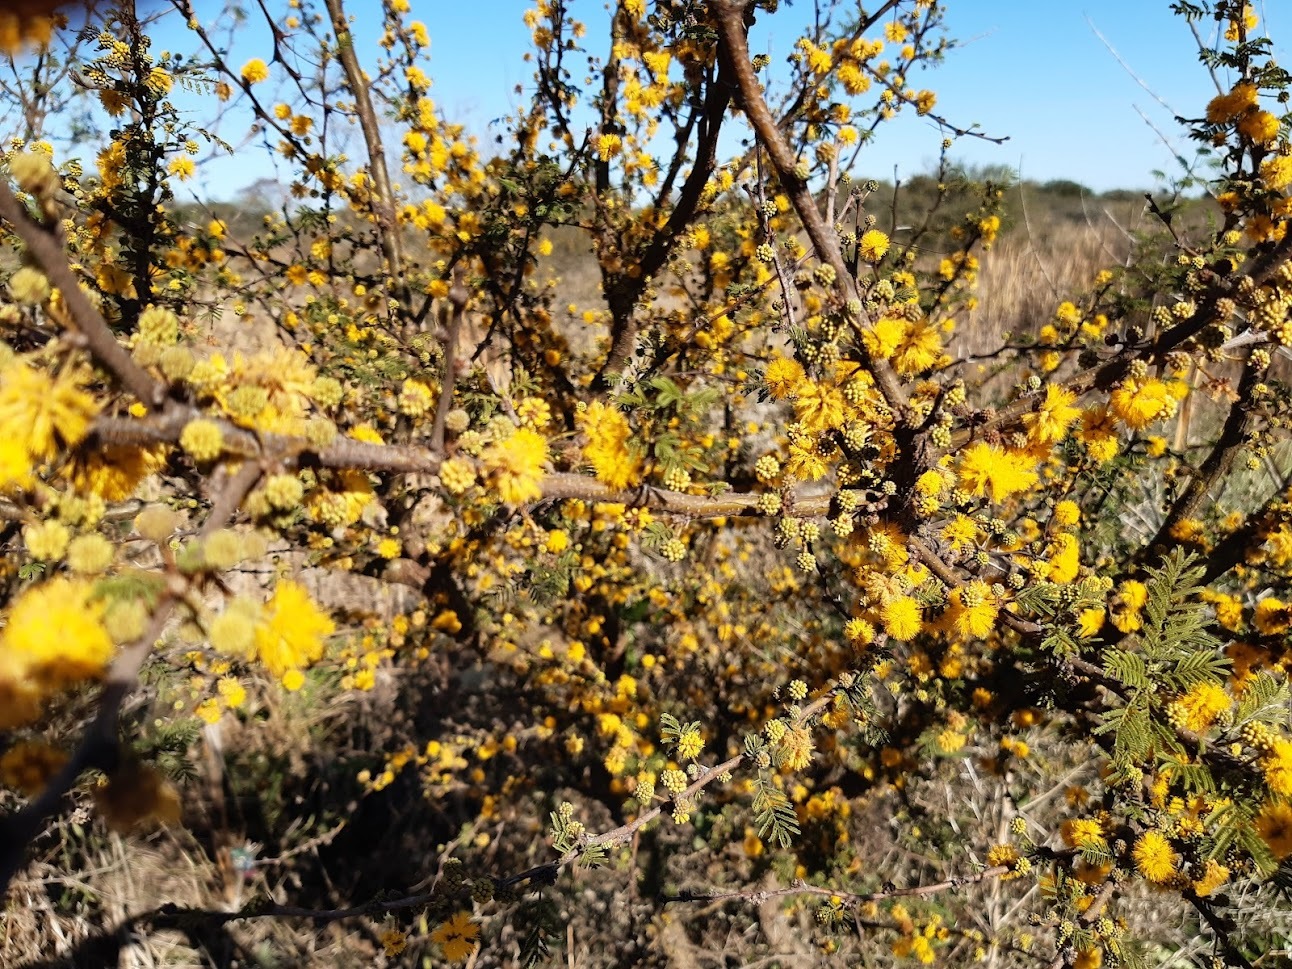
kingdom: Plantae
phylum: Tracheophyta
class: Magnoliopsida
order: Fabales
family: Fabaceae
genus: Vachellia
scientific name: Vachellia caven
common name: Roman cassie
